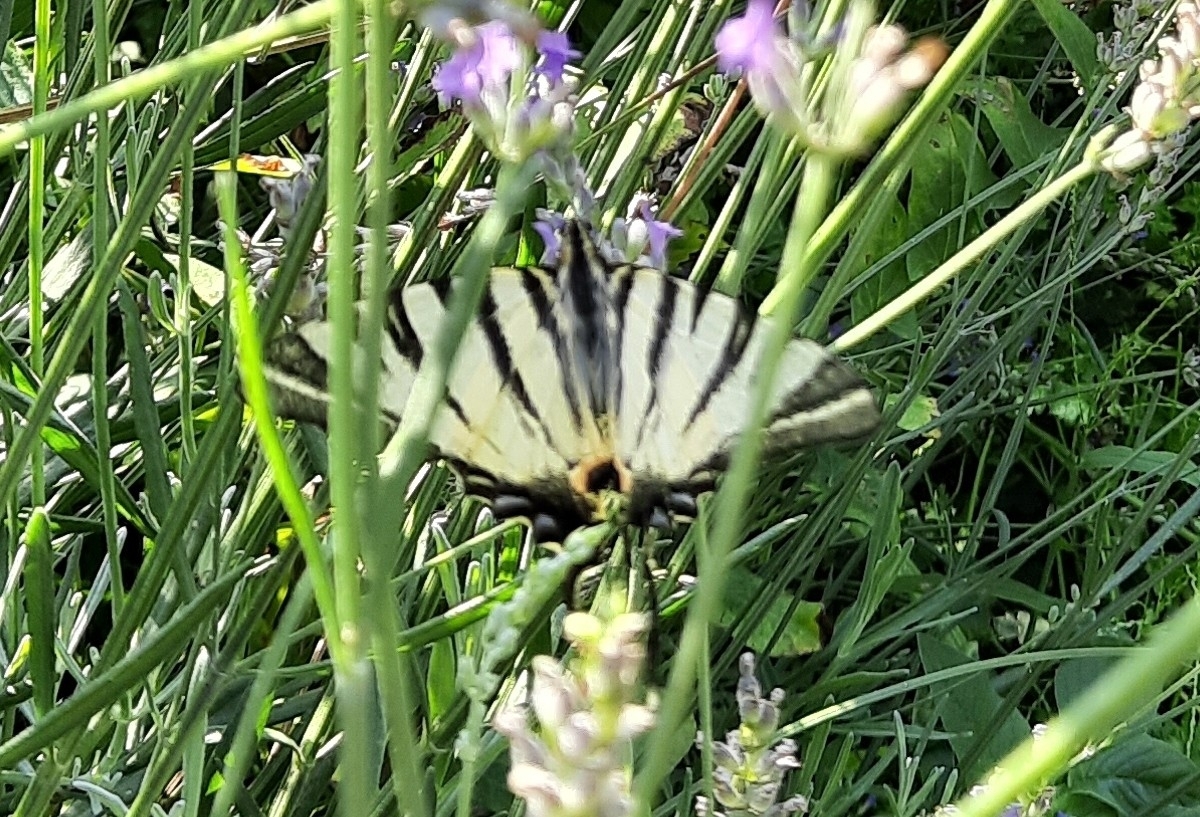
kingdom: Animalia
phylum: Arthropoda
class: Insecta
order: Lepidoptera
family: Papilionidae
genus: Iphiclides
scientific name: Iphiclides podalirius
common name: Scarce swallowtail
